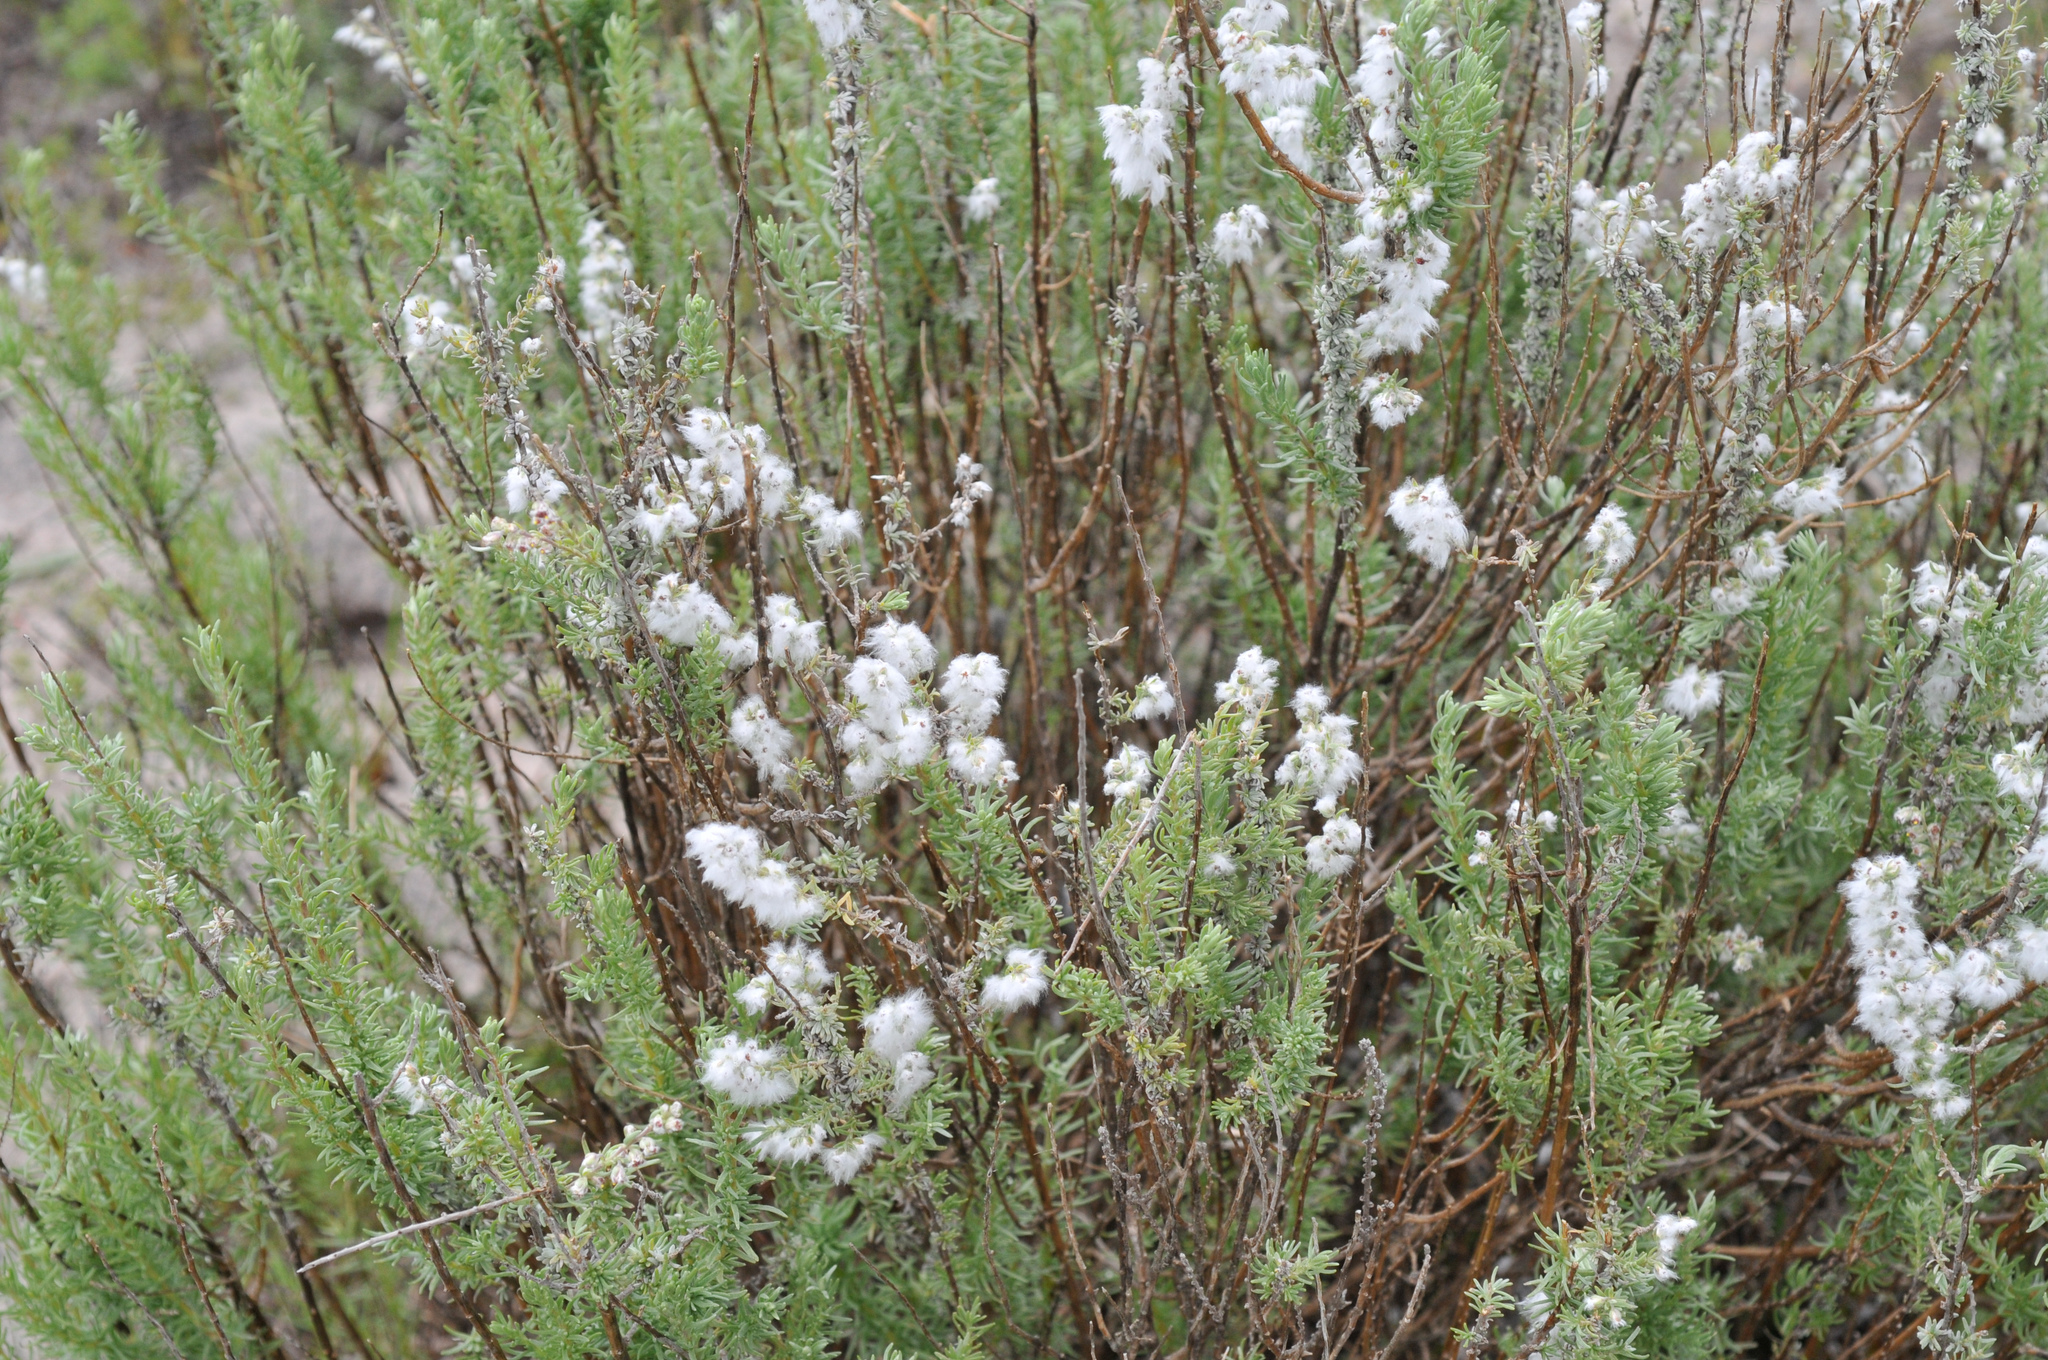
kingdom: Plantae
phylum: Tracheophyta
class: Magnoliopsida
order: Asterales
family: Asteraceae
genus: Eriocephalus
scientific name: Eriocephalus racemosus
